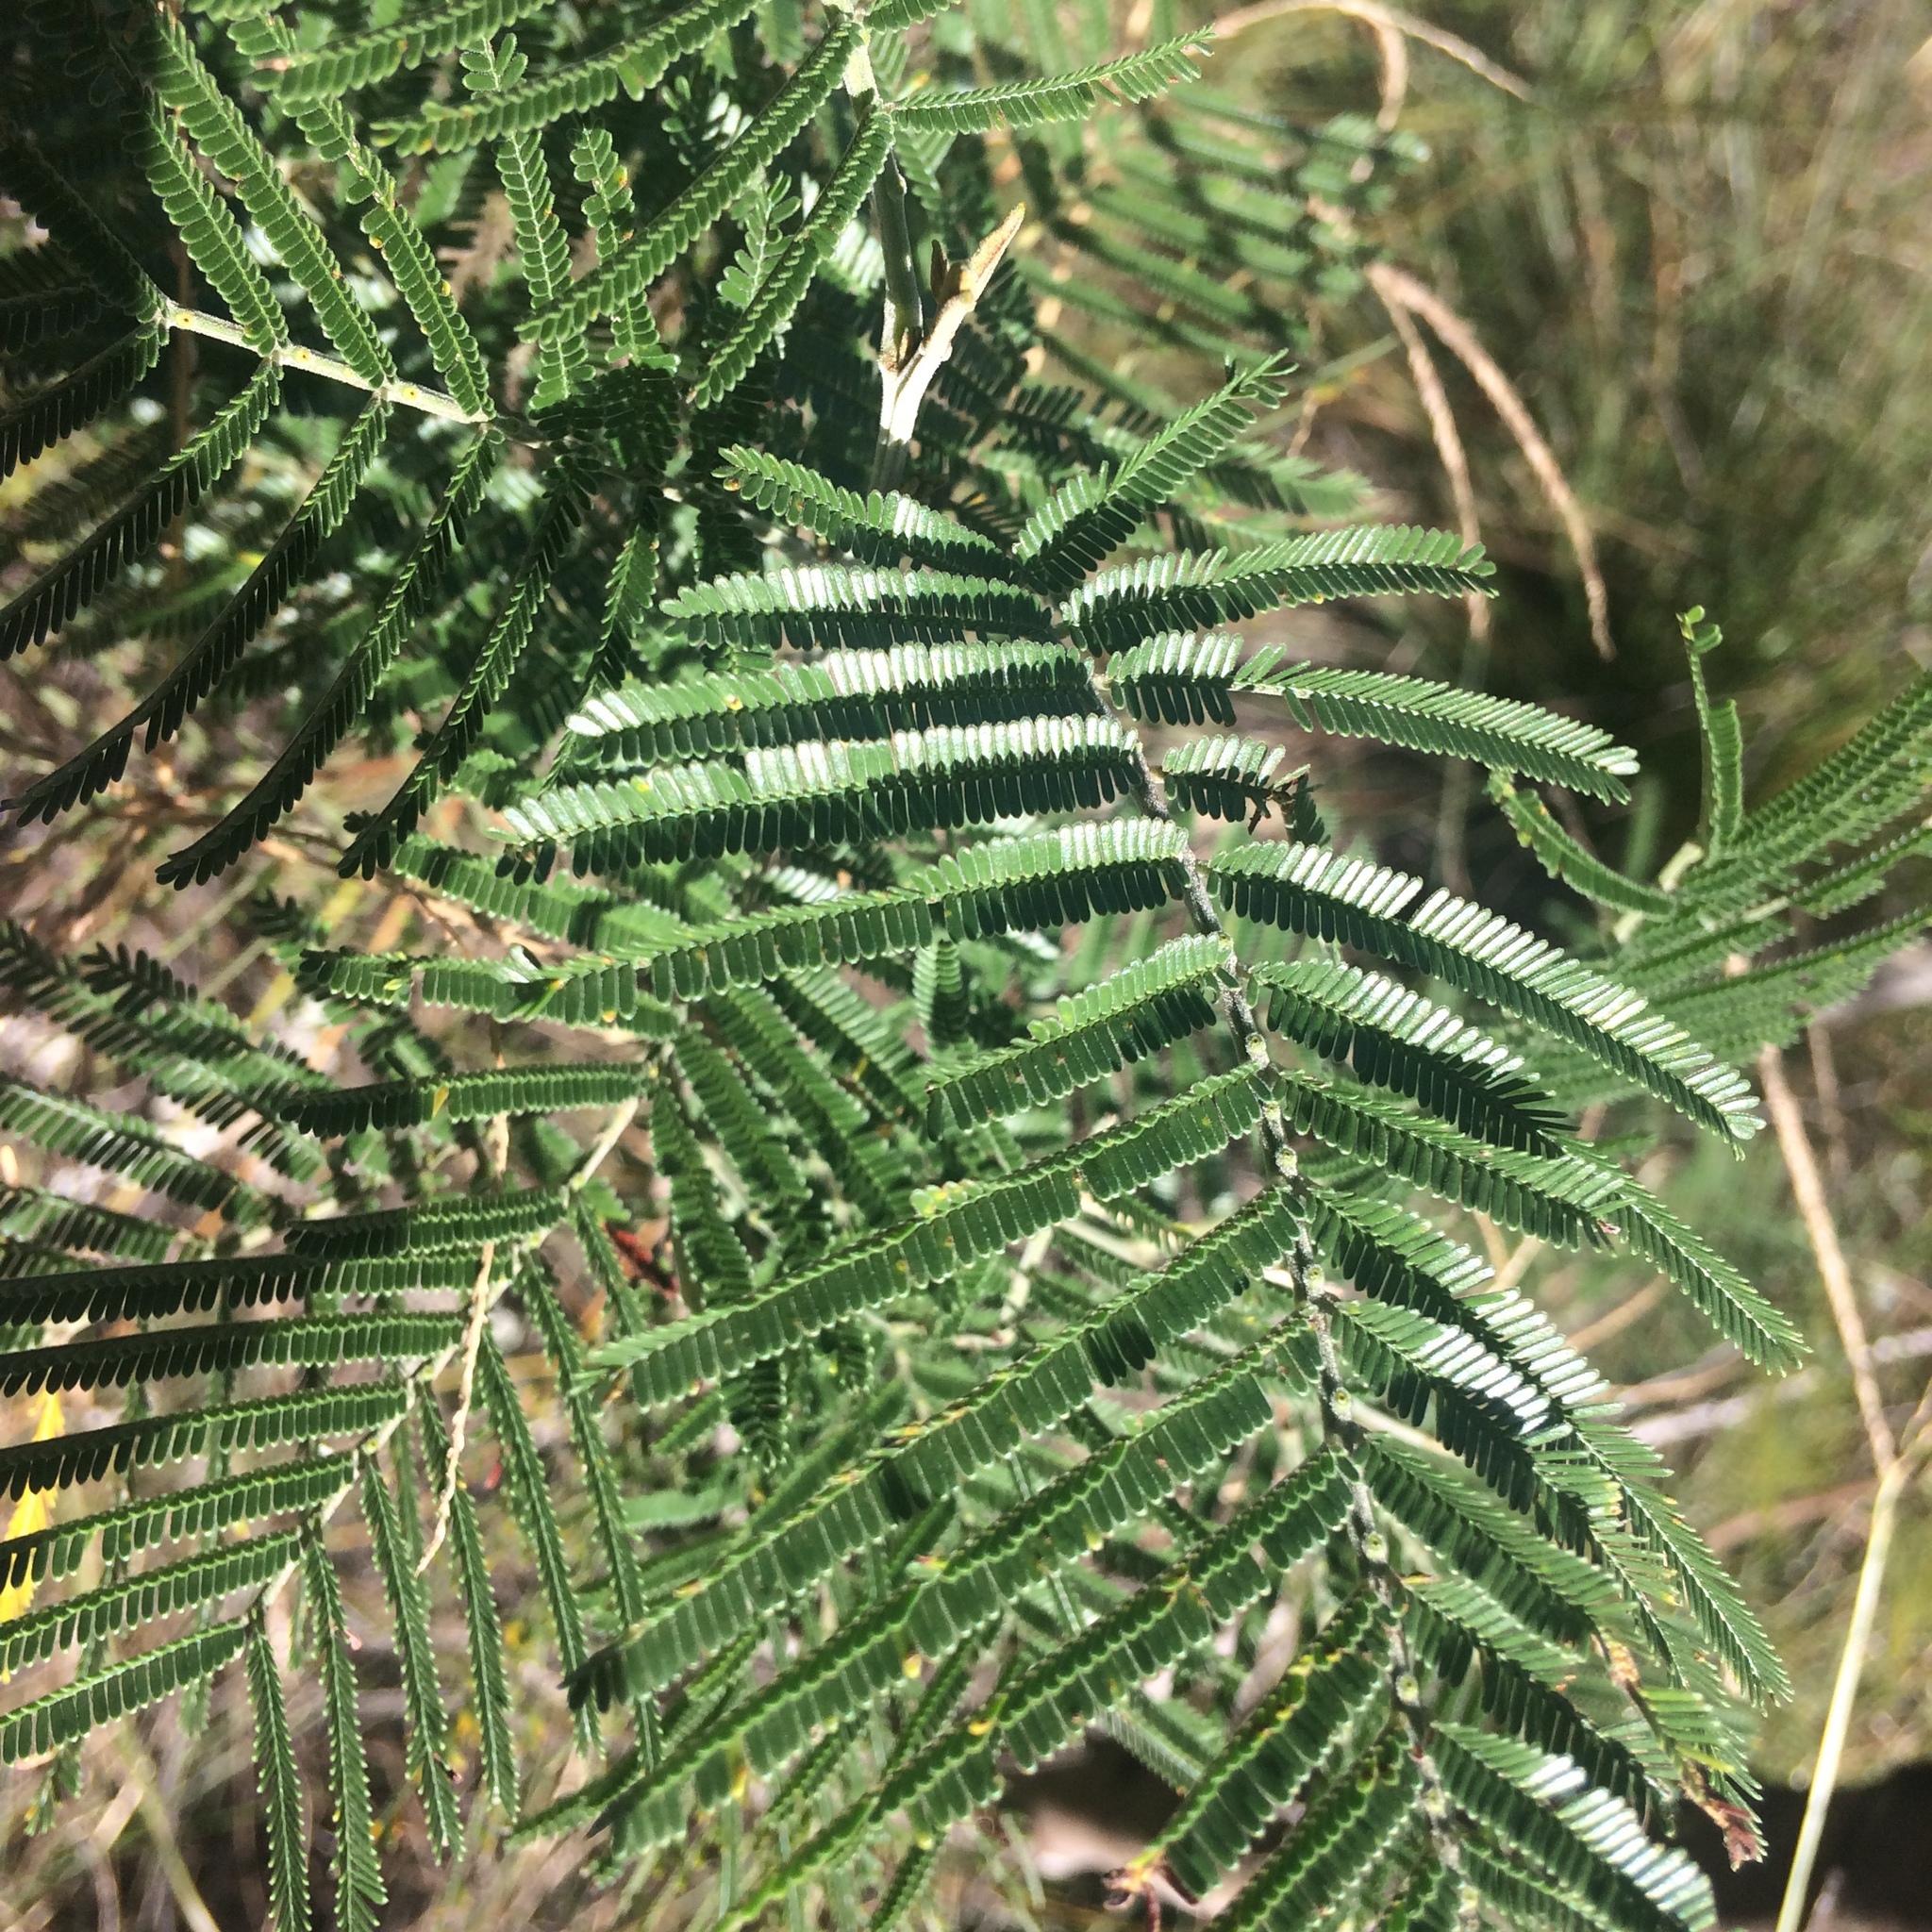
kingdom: Plantae
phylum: Tracheophyta
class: Magnoliopsida
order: Fabales
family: Fabaceae
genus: Acacia
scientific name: Acacia mearnsii
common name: Black wattle
